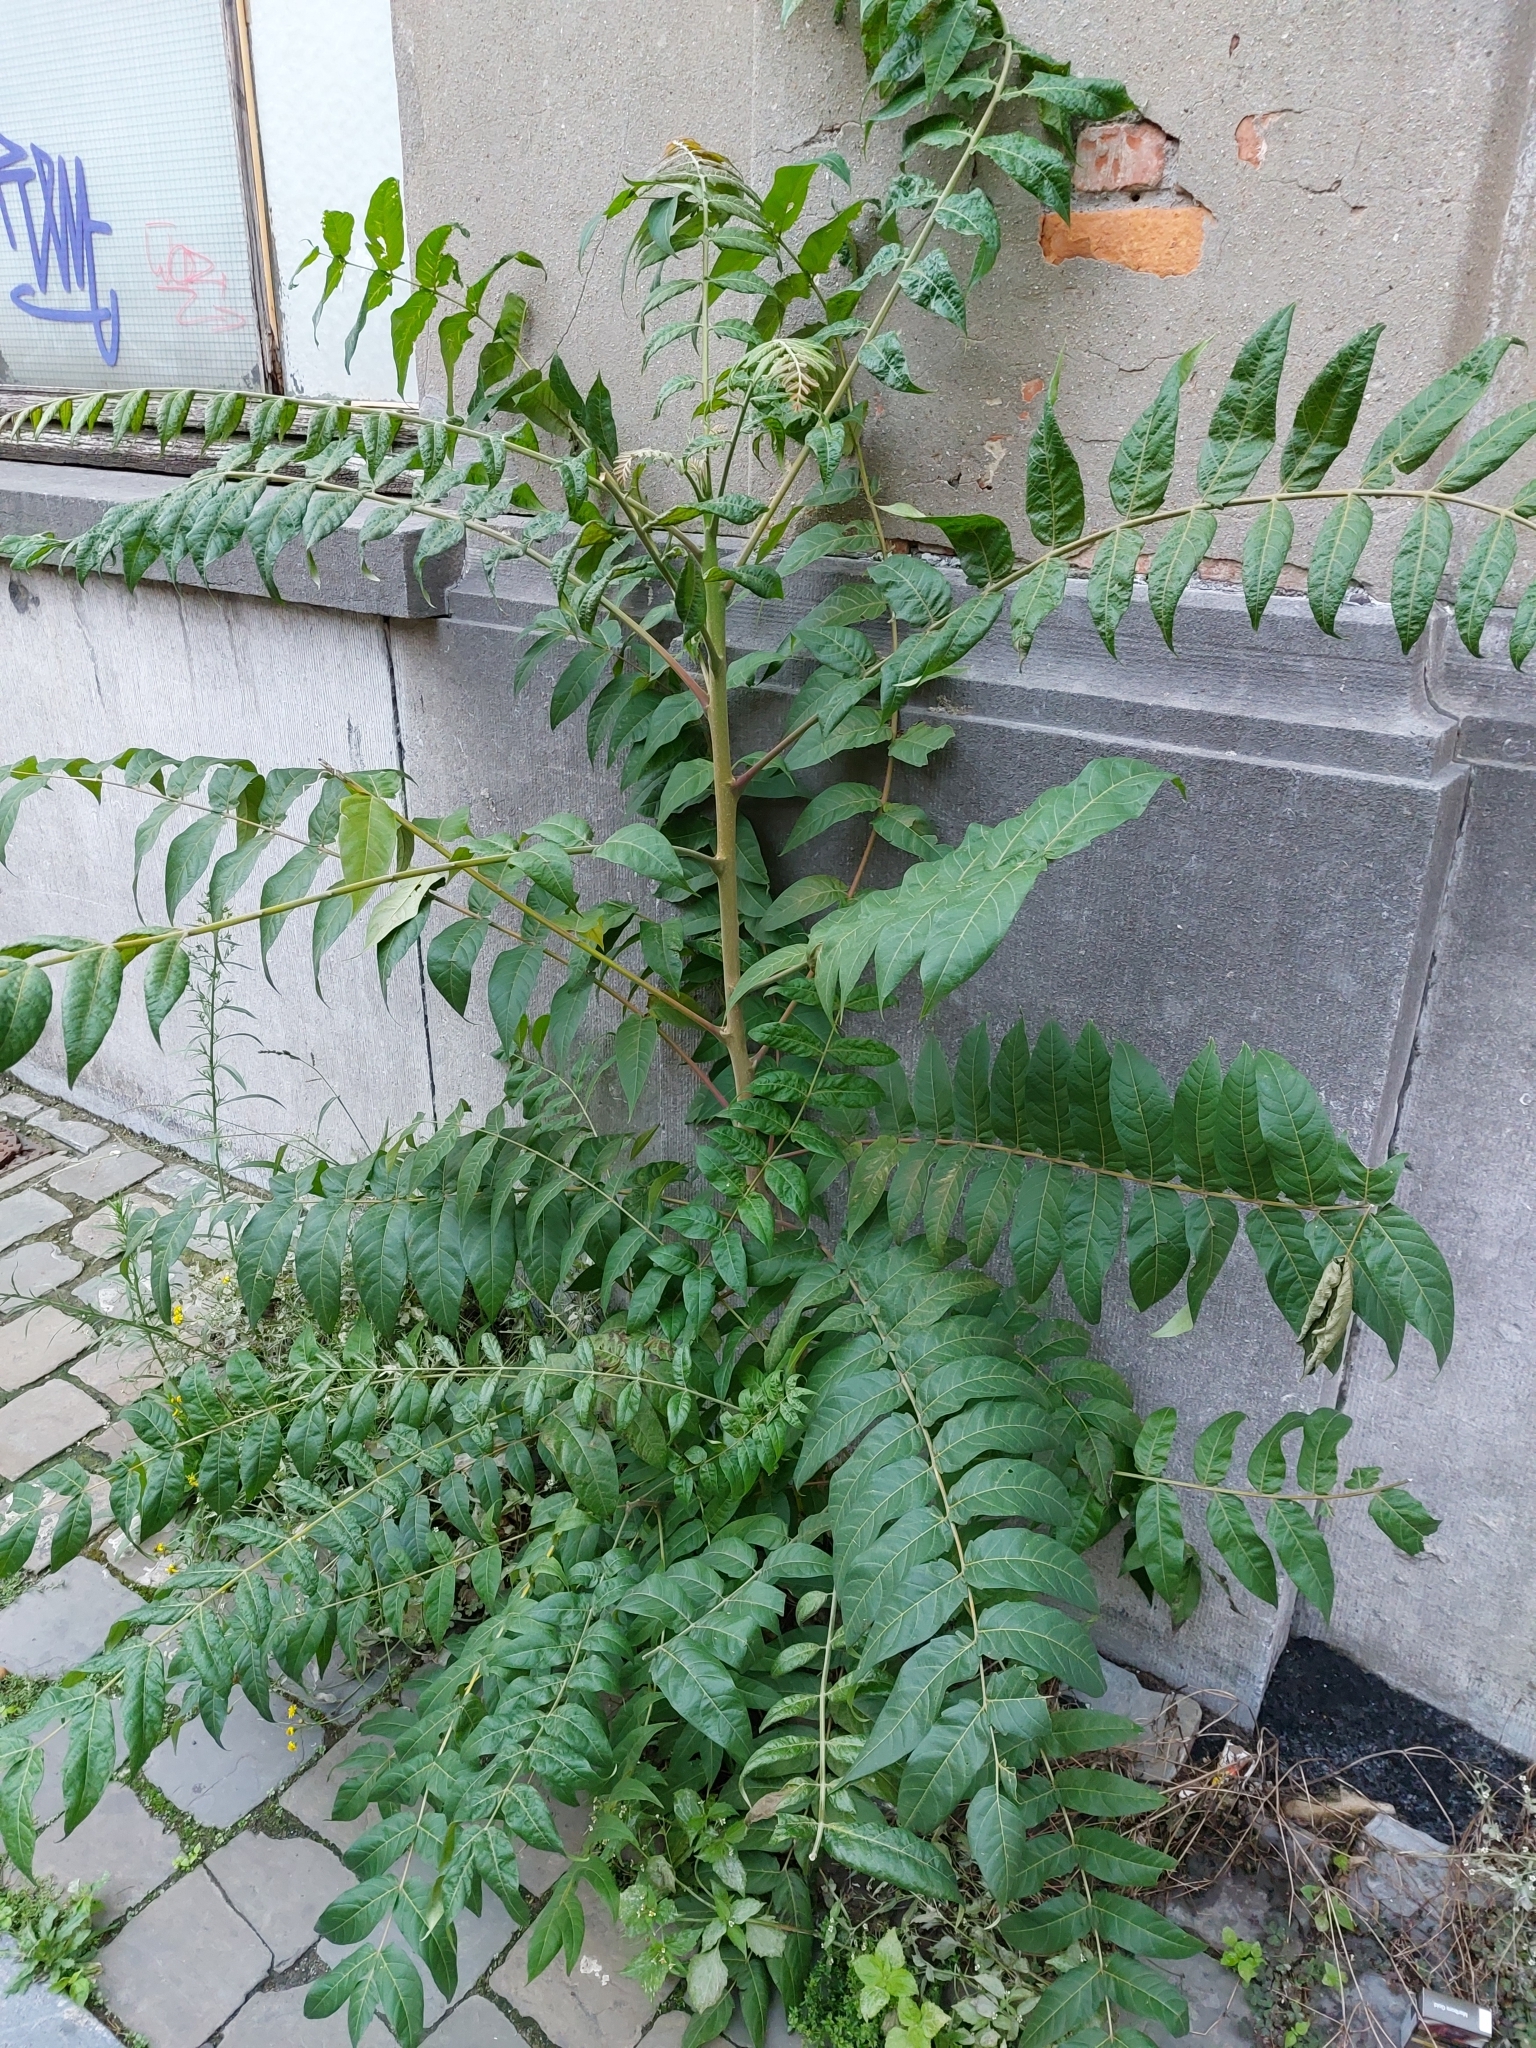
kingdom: Plantae
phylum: Tracheophyta
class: Magnoliopsida
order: Sapindales
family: Simaroubaceae
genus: Ailanthus
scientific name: Ailanthus altissima
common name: Tree-of-heaven
